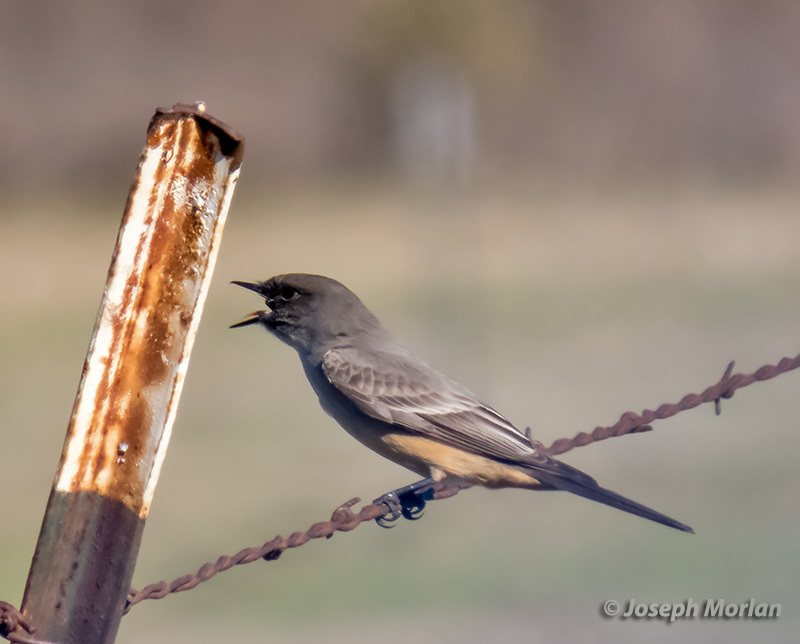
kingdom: Animalia
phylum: Chordata
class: Aves
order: Passeriformes
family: Tyrannidae
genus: Sayornis
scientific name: Sayornis saya
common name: Say's phoebe
